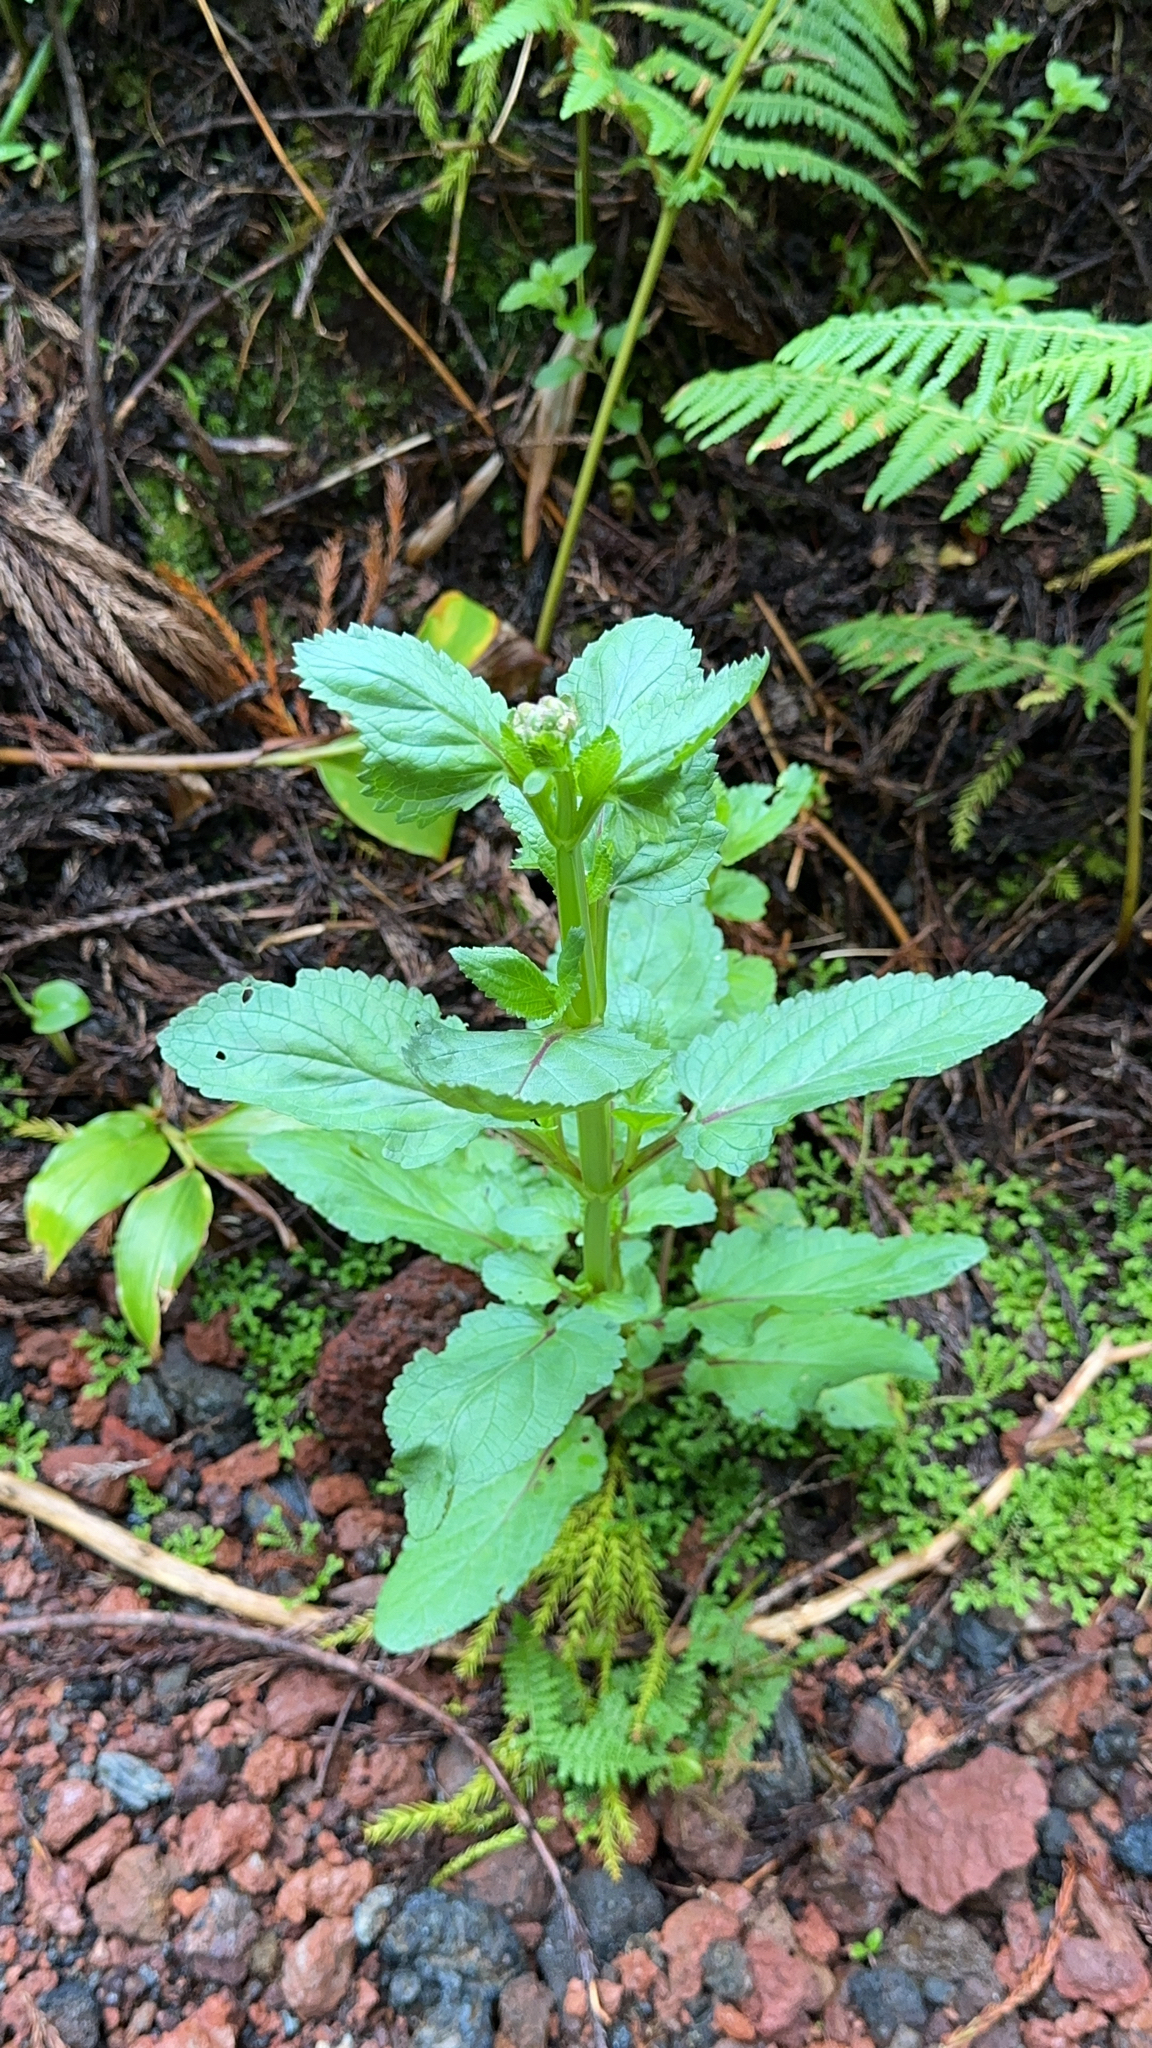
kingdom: Plantae
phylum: Tracheophyta
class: Magnoliopsida
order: Lamiales
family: Scrophulariaceae
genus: Scrophularia
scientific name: Scrophularia auriculata
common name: Water betony
